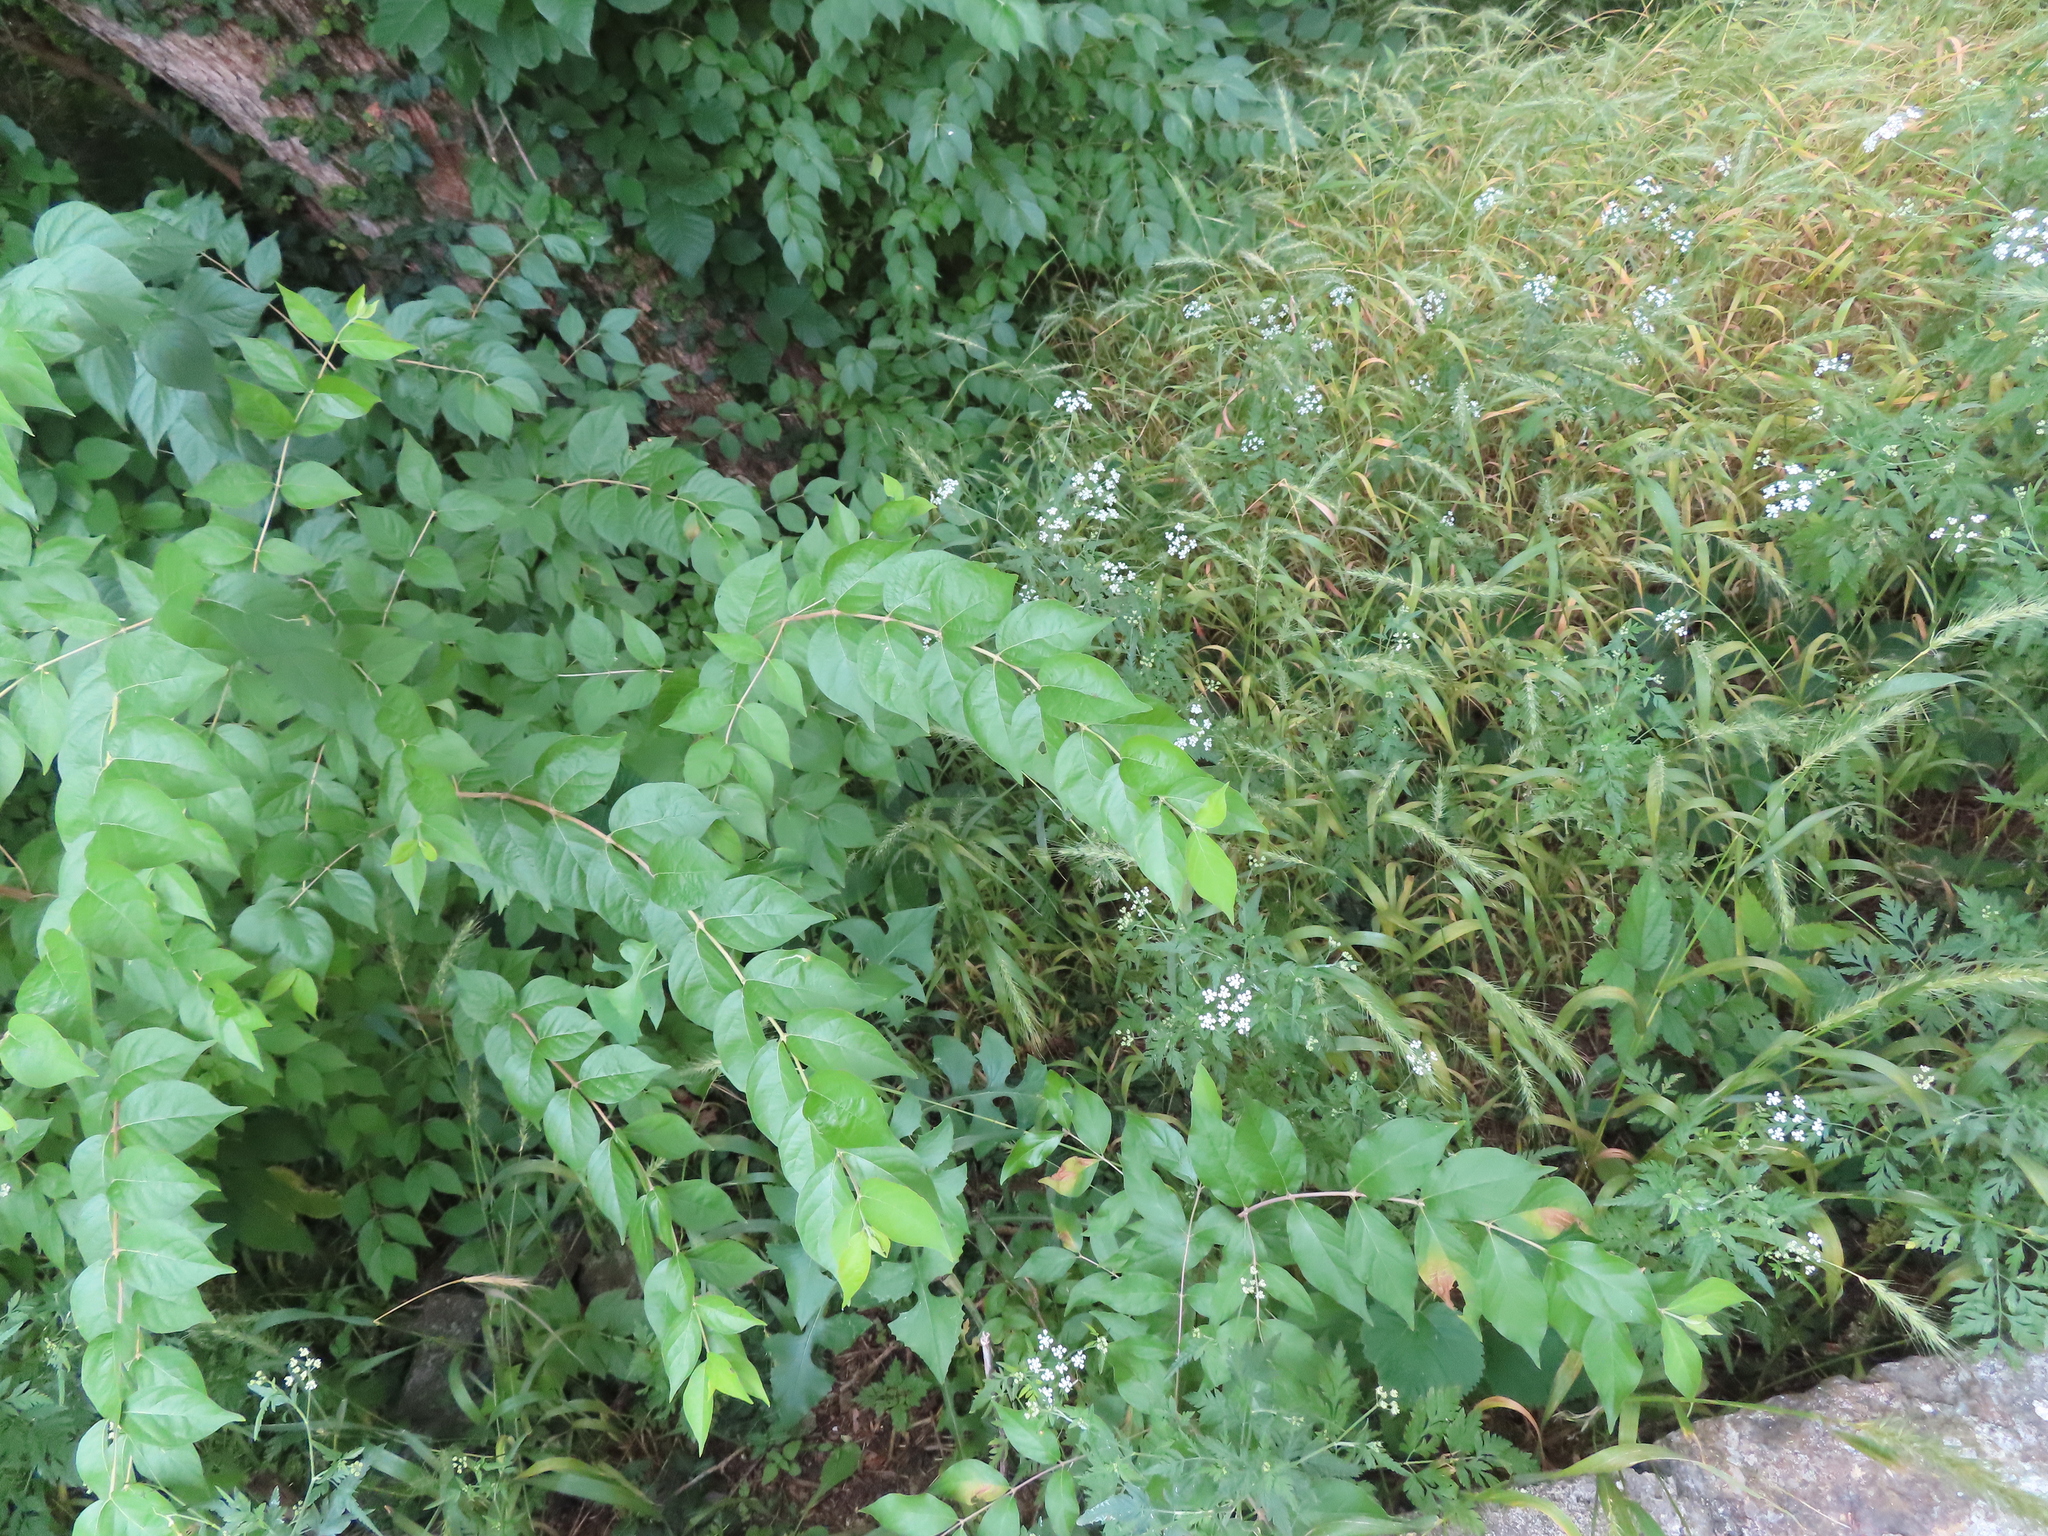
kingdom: Plantae
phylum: Tracheophyta
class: Magnoliopsida
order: Dipsacales
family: Caprifoliaceae
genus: Lonicera
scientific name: Lonicera maackii
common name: Amur honeysuckle
